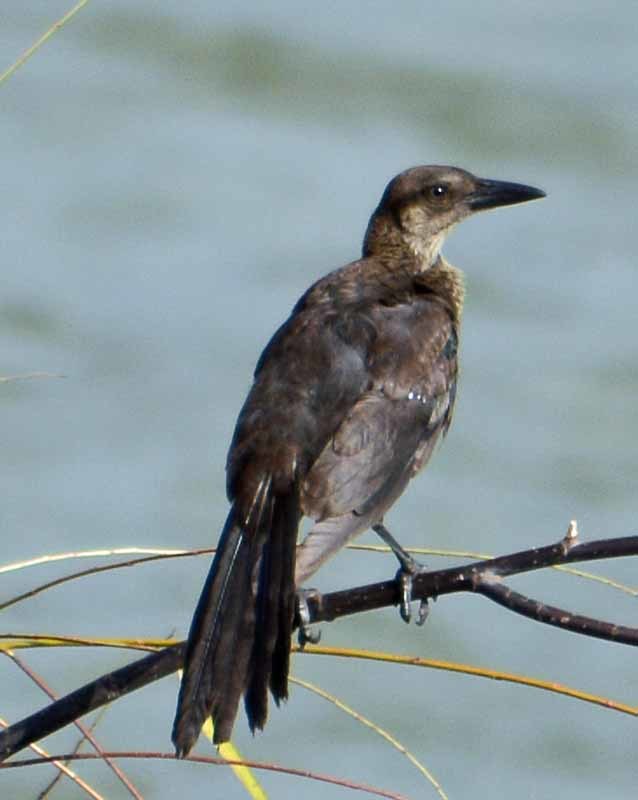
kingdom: Animalia
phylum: Chordata
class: Aves
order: Passeriformes
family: Icteridae
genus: Quiscalus
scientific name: Quiscalus mexicanus
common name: Great-tailed grackle
